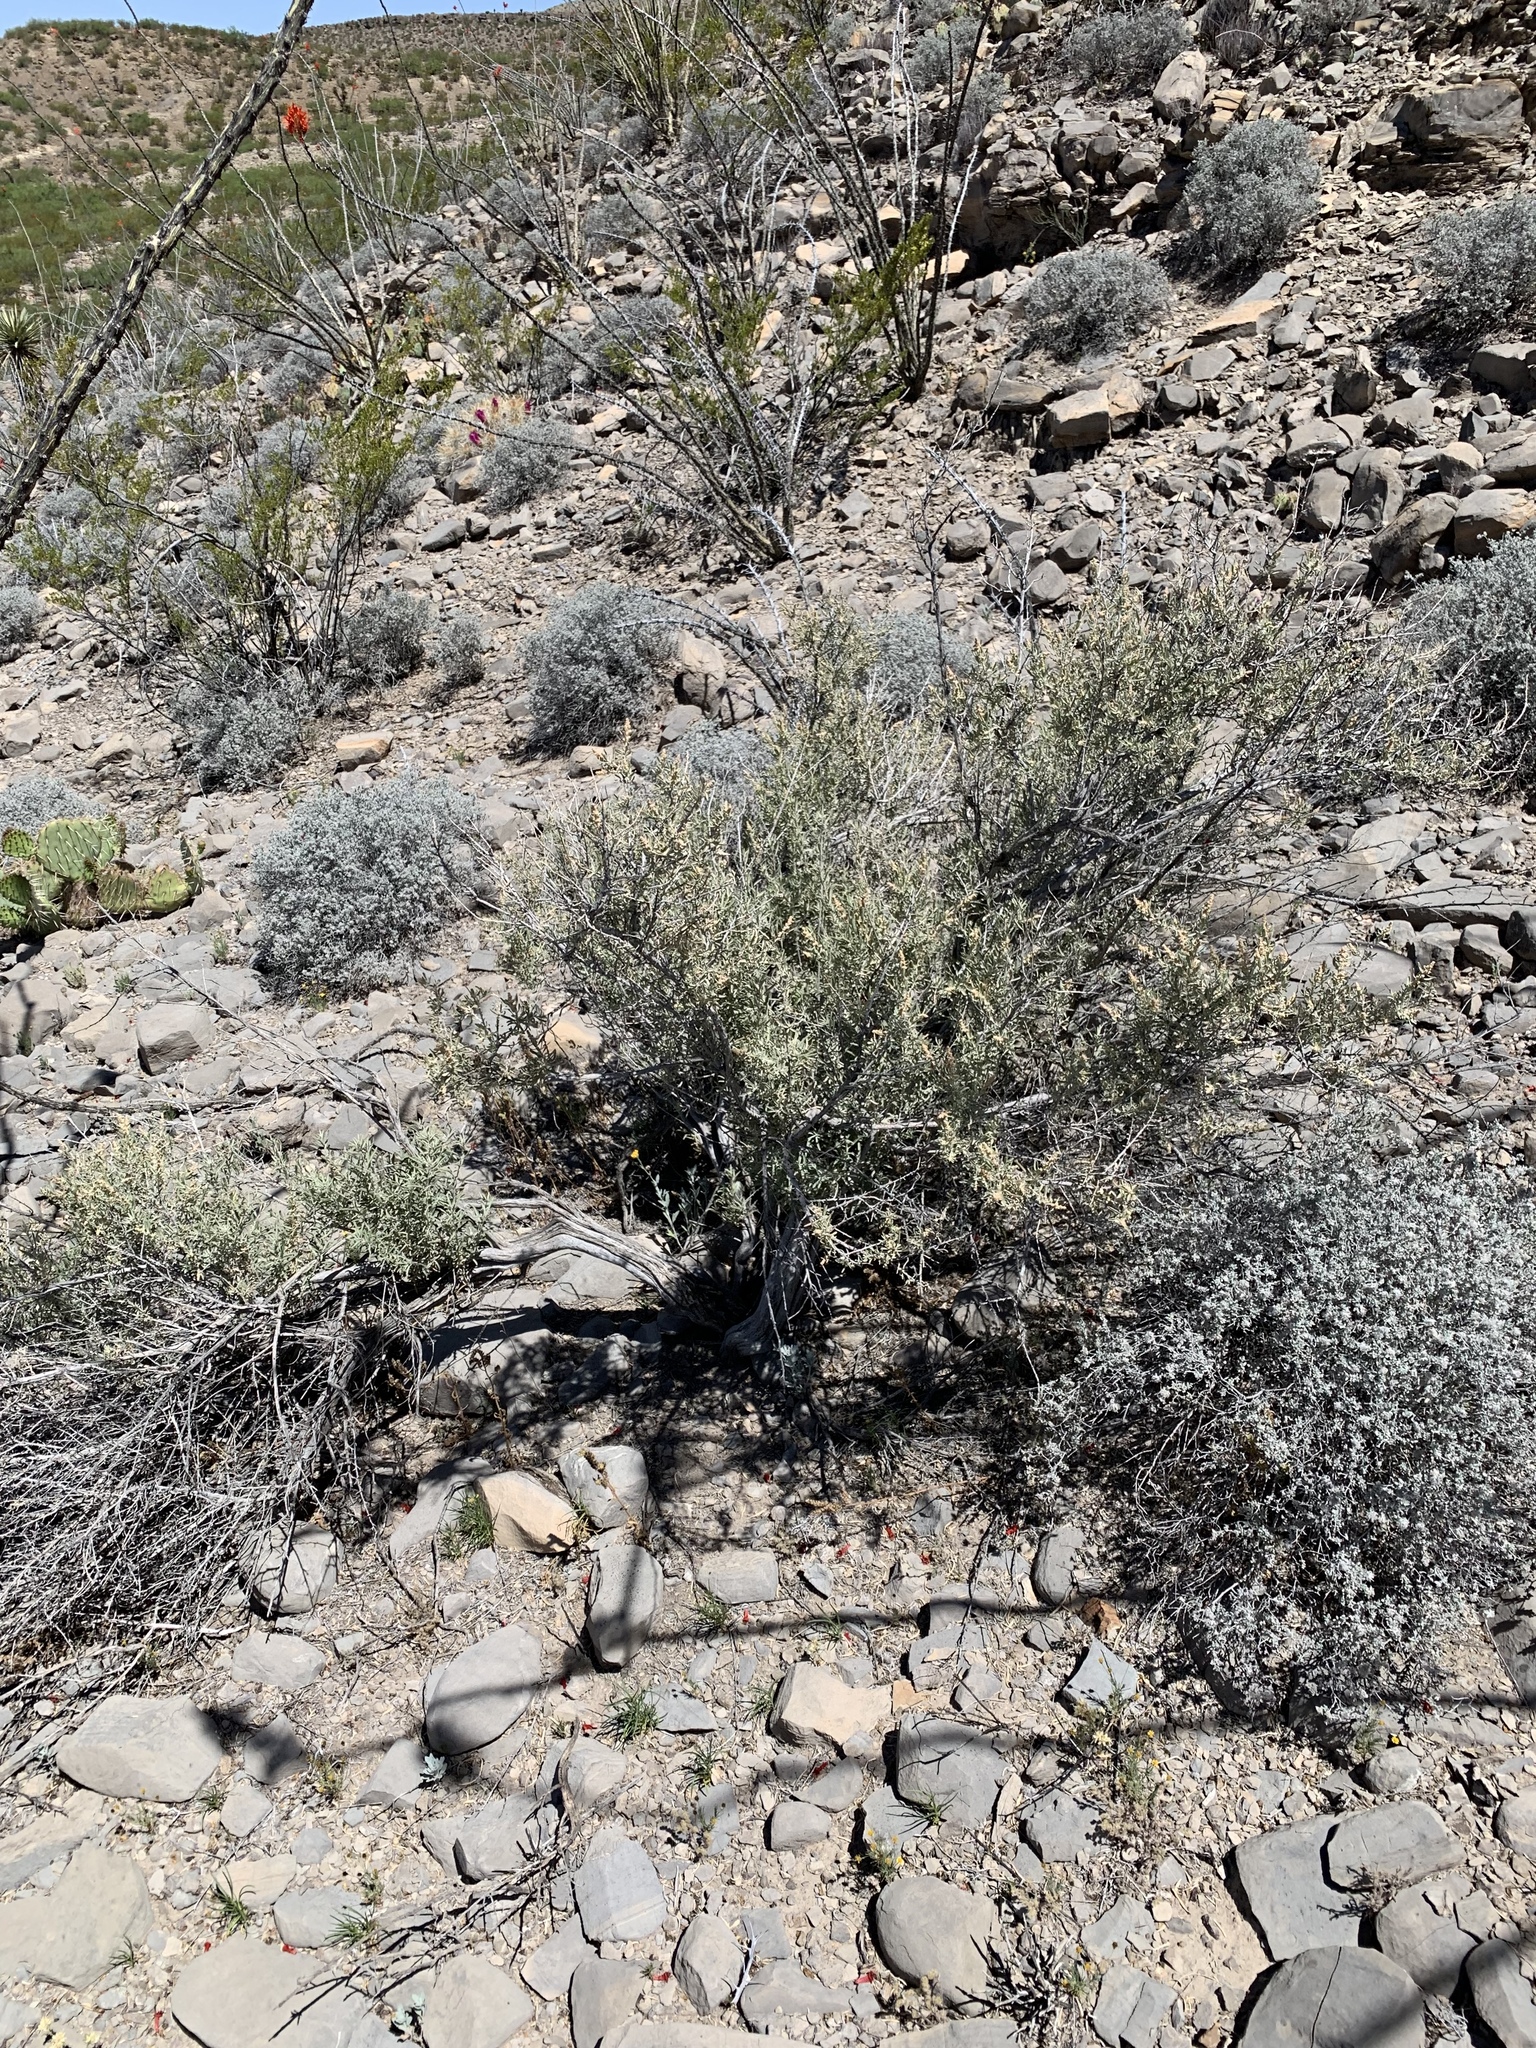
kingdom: Plantae
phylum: Tracheophyta
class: Magnoliopsida
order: Caryophyllales
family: Amaranthaceae
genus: Atriplex
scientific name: Atriplex canescens
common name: Four-wing saltbush
